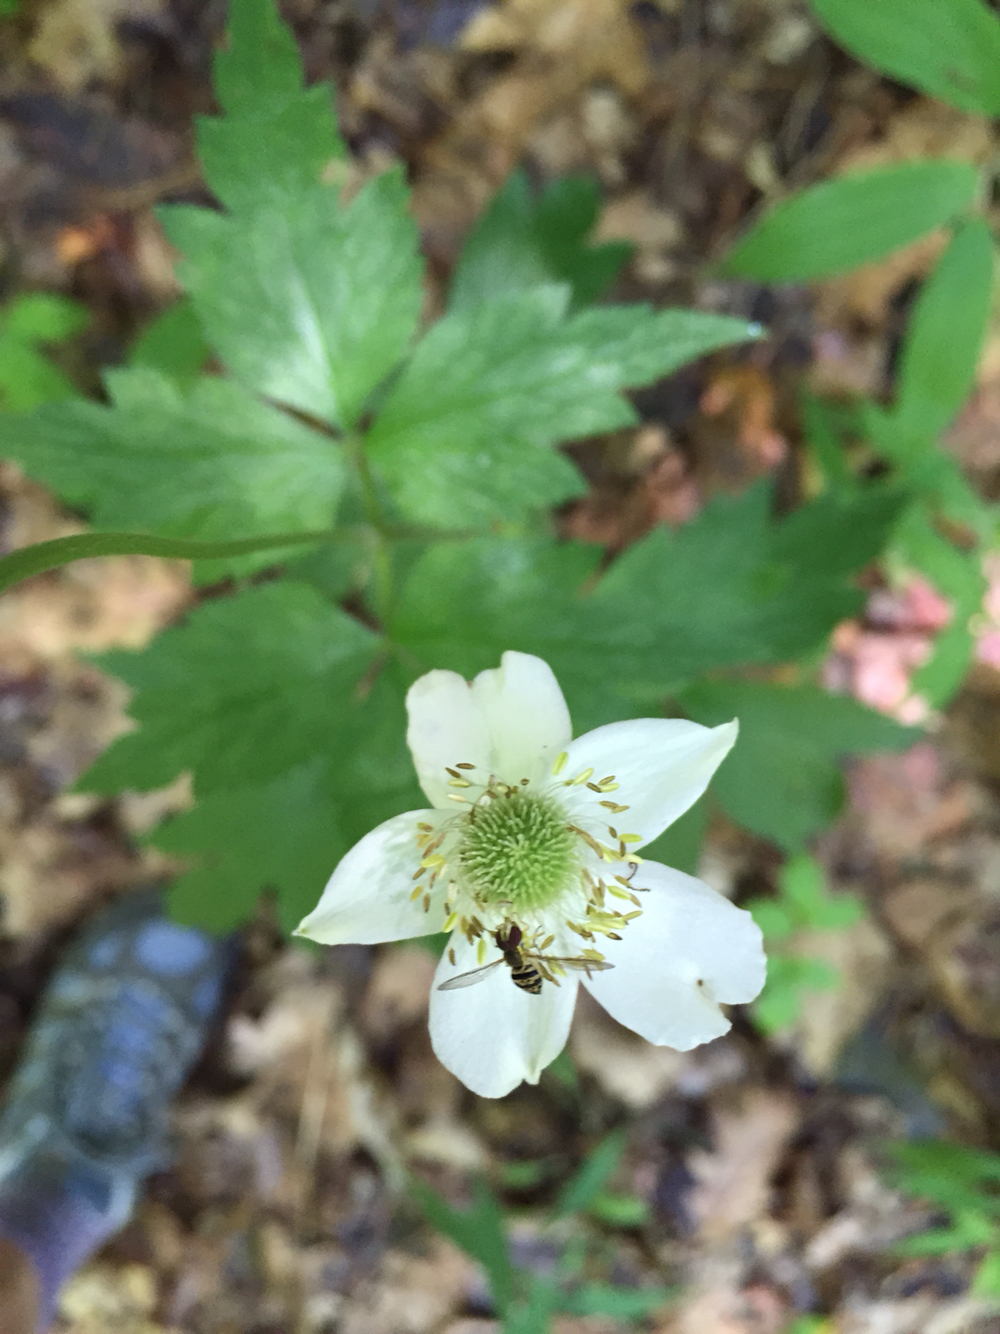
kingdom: Plantae
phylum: Tracheophyta
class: Magnoliopsida
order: Ranunculales
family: Ranunculaceae
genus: Anemone
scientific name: Anemone virginiana
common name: Tall anemone
